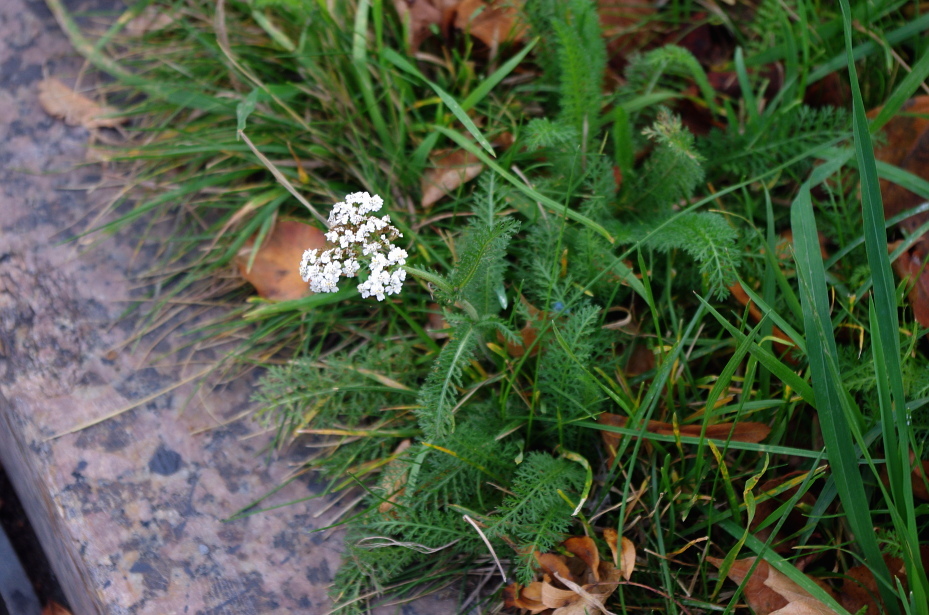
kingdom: Plantae
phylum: Tracheophyta
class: Magnoliopsida
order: Asterales
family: Asteraceae
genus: Achillea
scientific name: Achillea millefolium
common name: Yarrow
